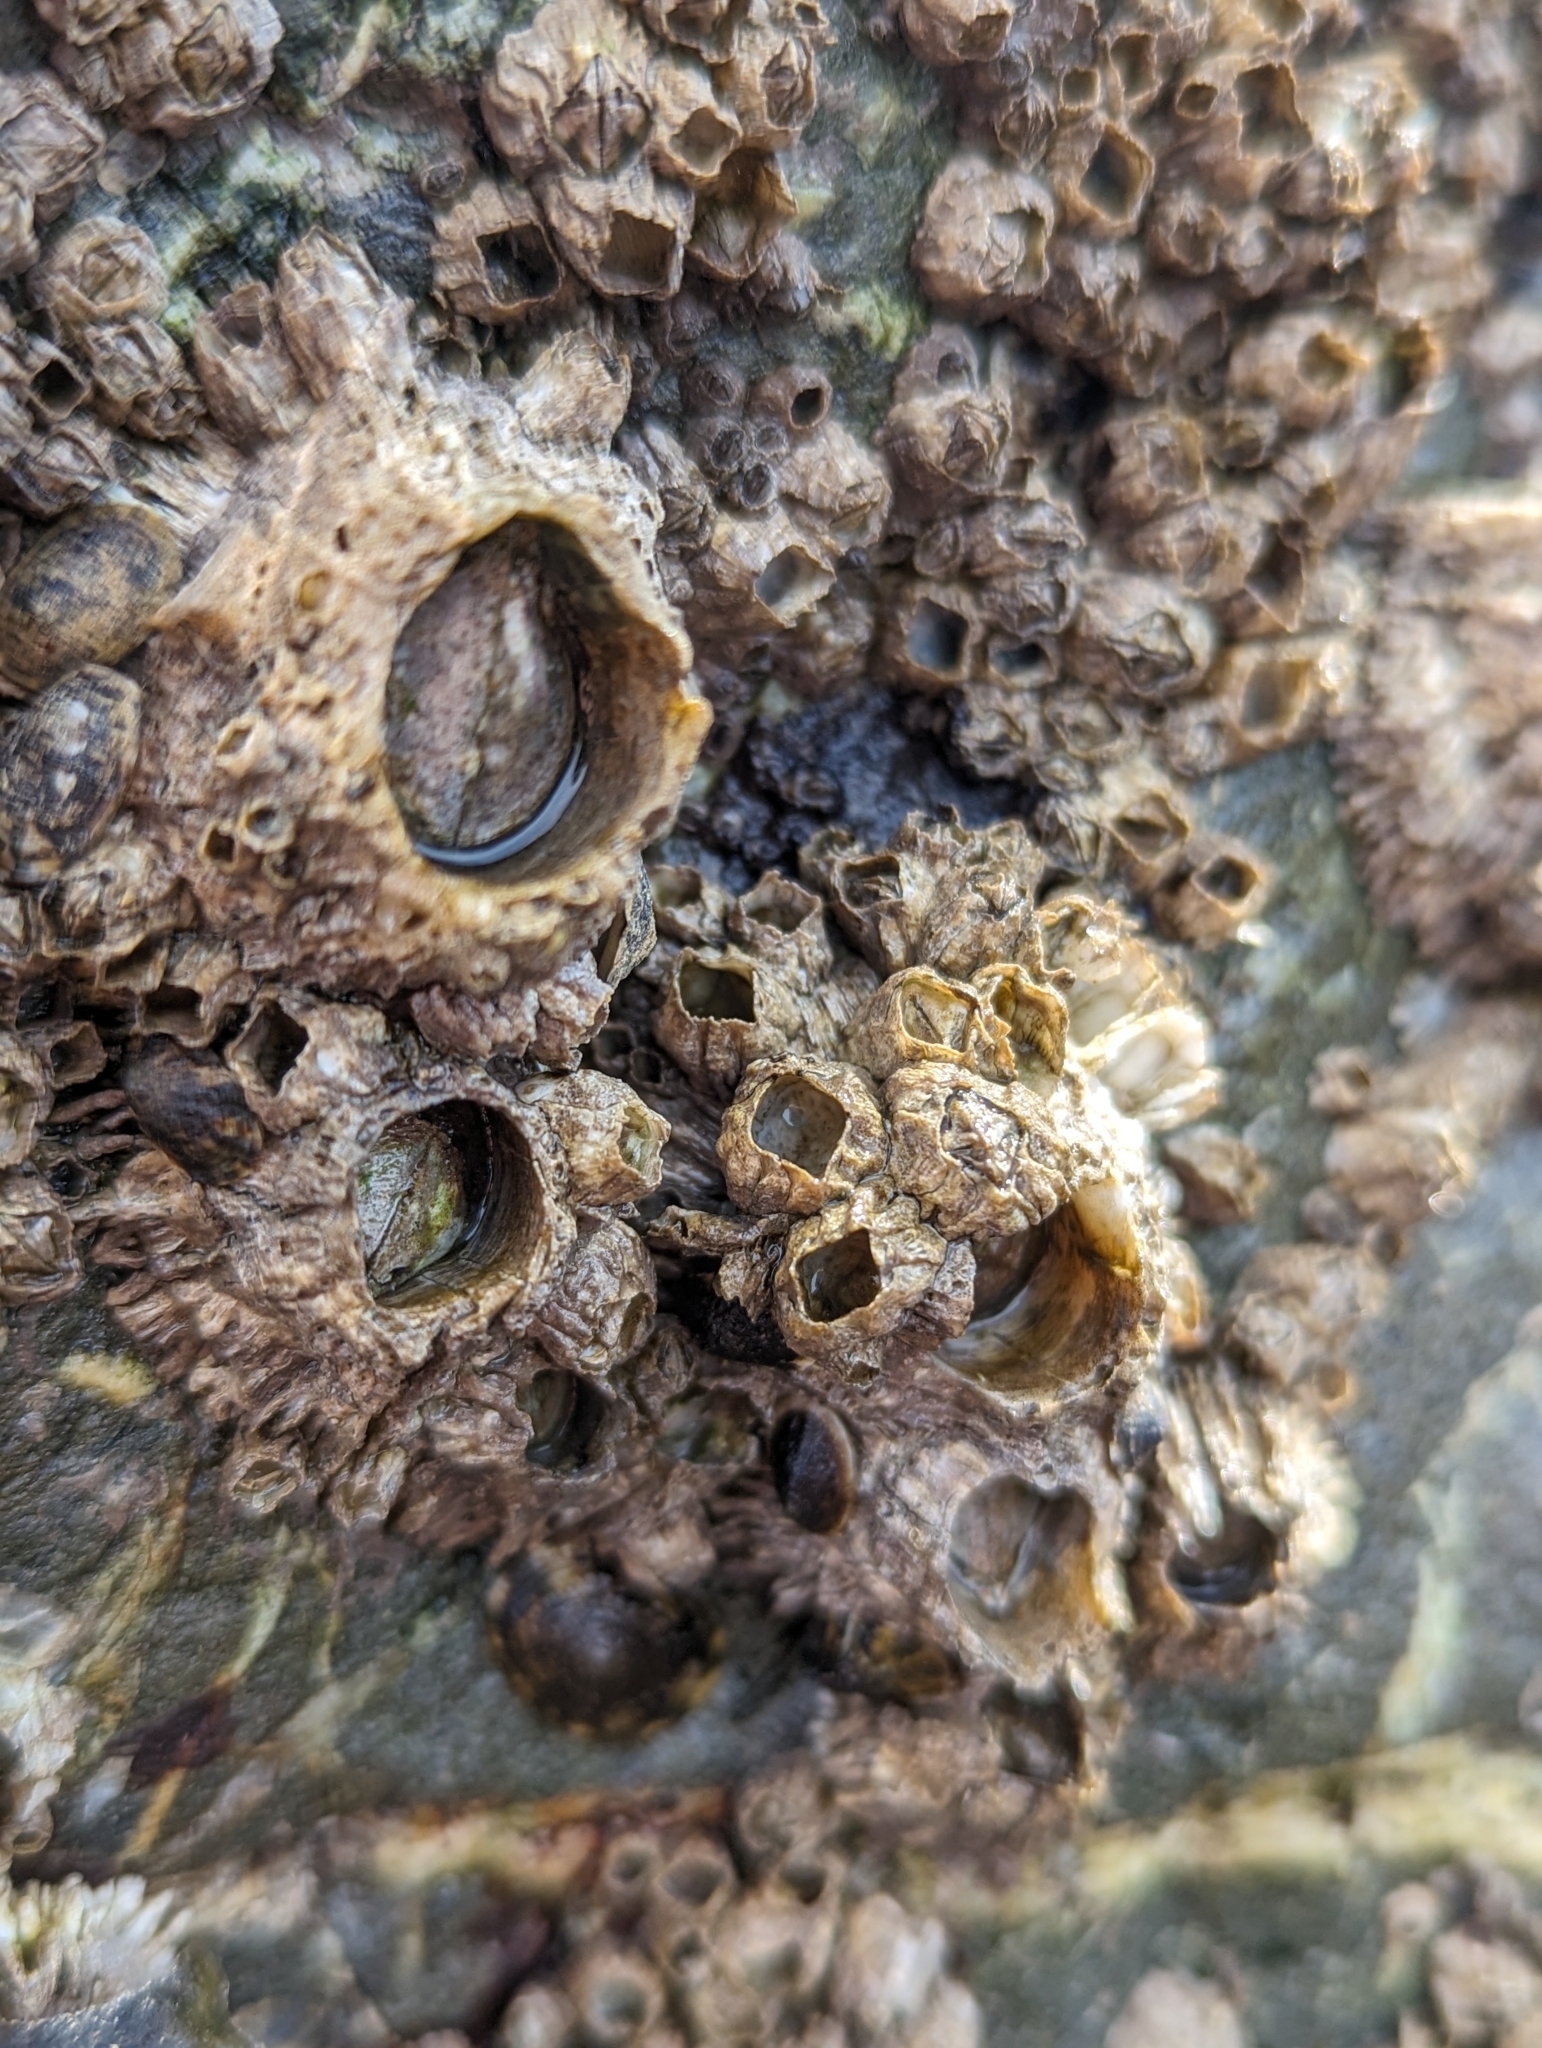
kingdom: Animalia
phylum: Arthropoda
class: Maxillopoda
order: Sessilia
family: Archaeobalanidae
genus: Semibalanus
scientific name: Semibalanus cariosus
